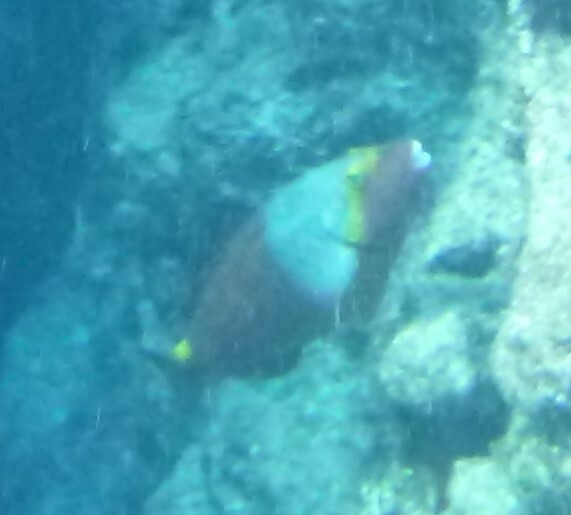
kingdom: Animalia
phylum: Chordata
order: Perciformes
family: Scaridae
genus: Sparisoma
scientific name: Sparisoma cretense
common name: Parrotfish
